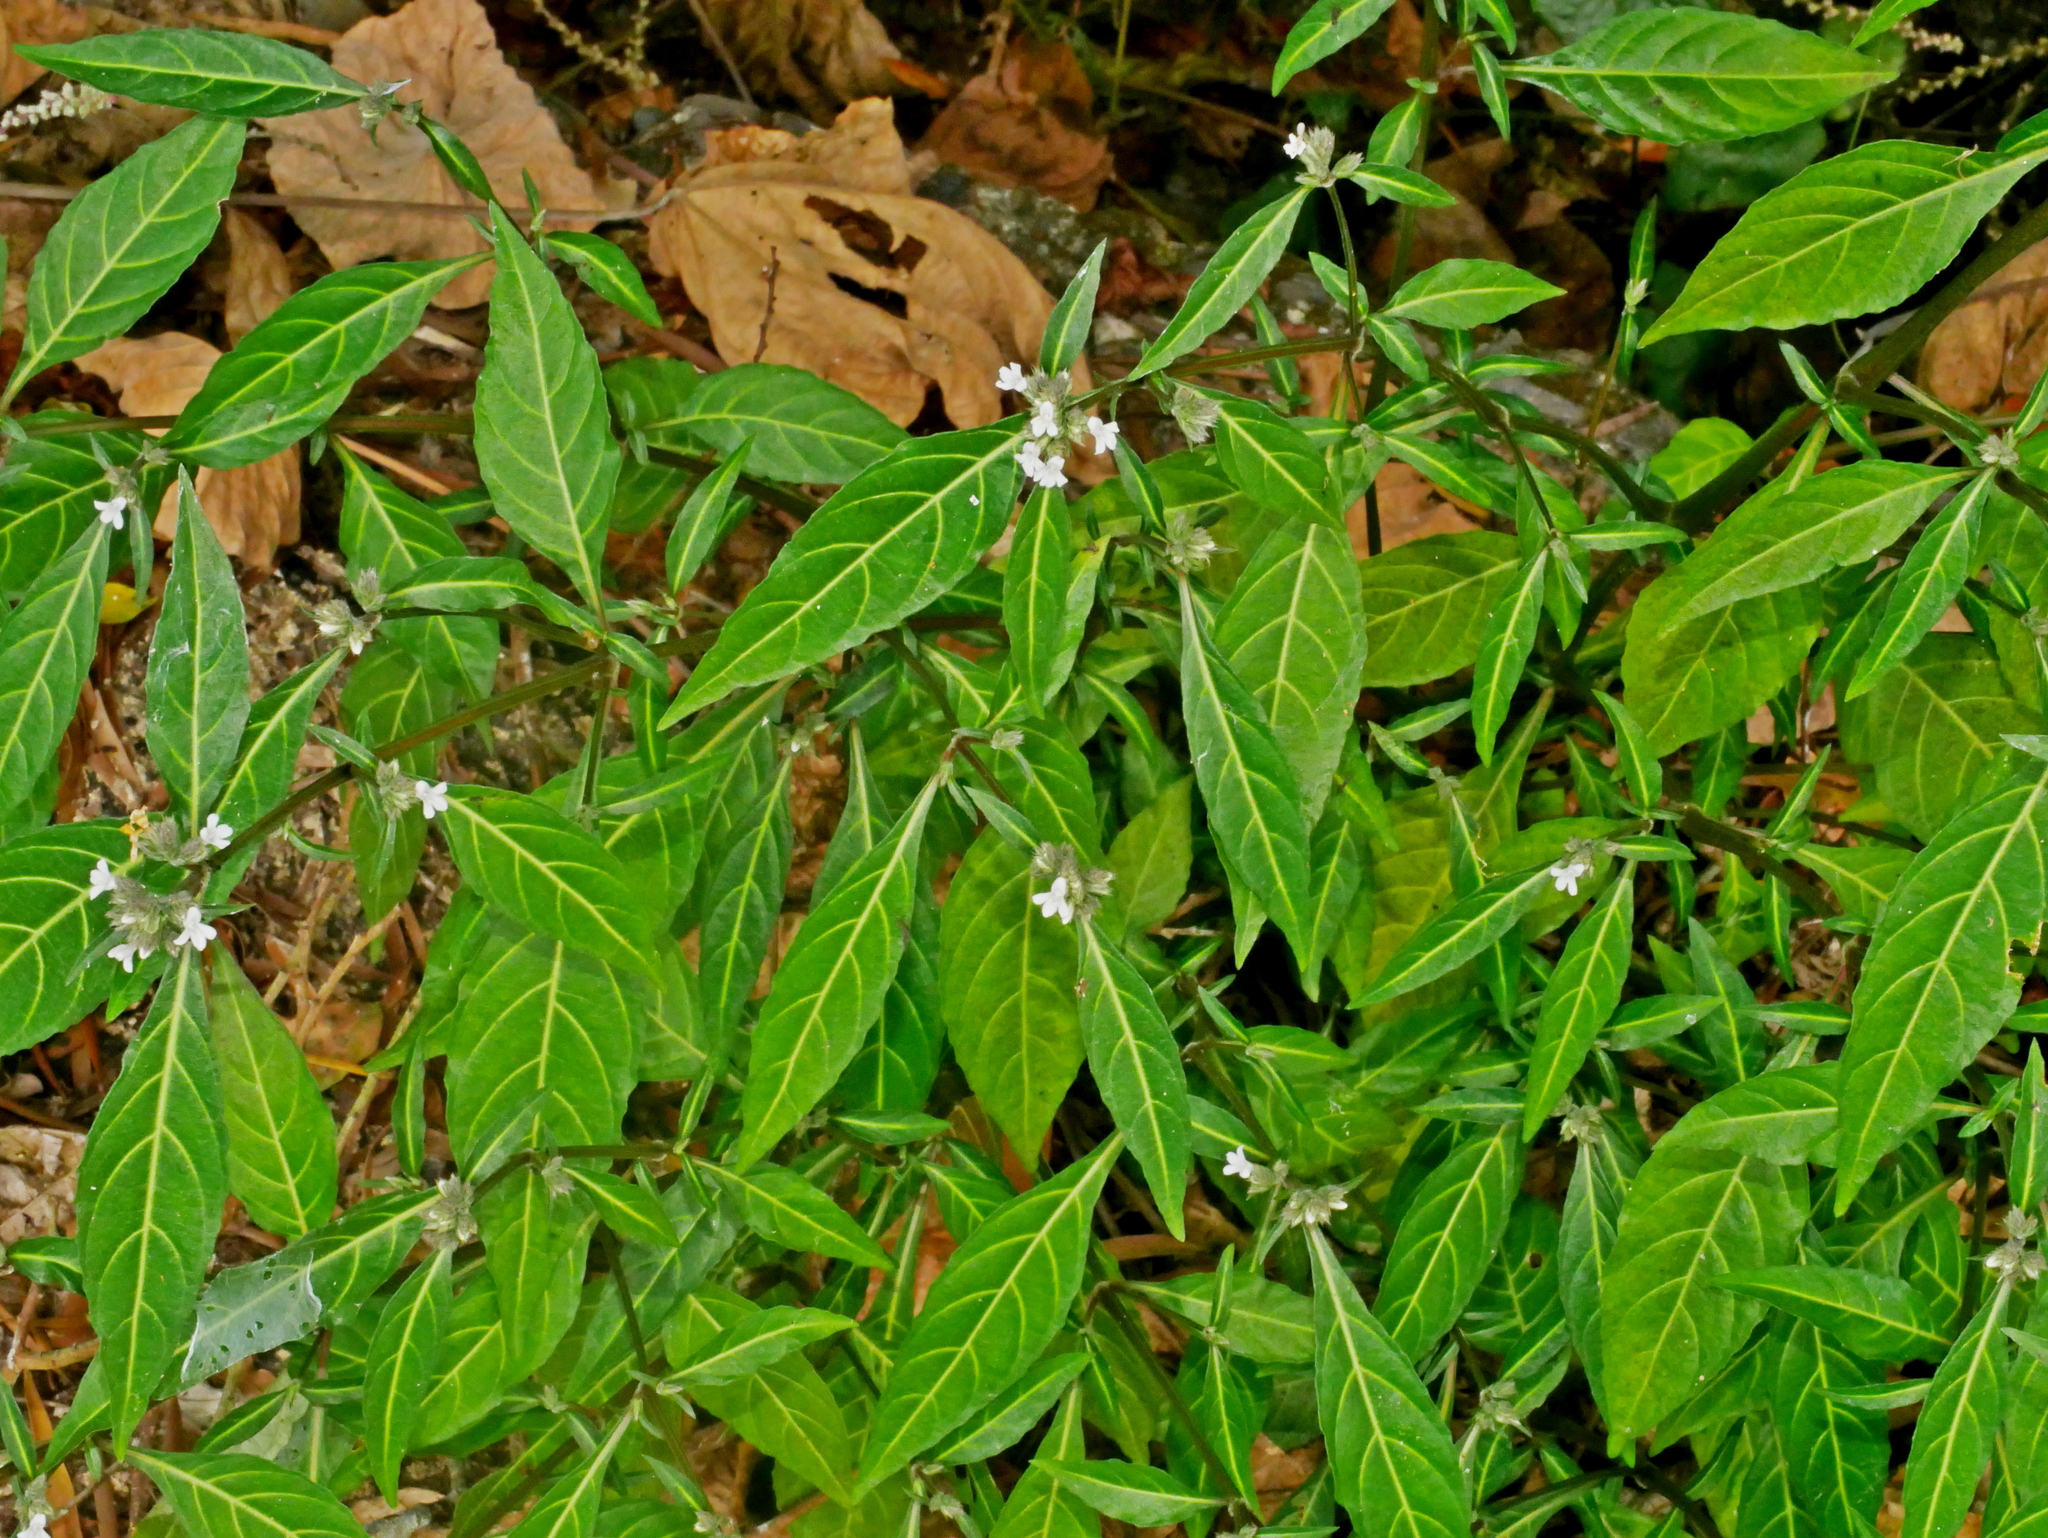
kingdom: Plantae
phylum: Tracheophyta
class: Magnoliopsida
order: Lamiales
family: Acanthaceae
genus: Lepidagathis
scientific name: Lepidagathis stenophylla
